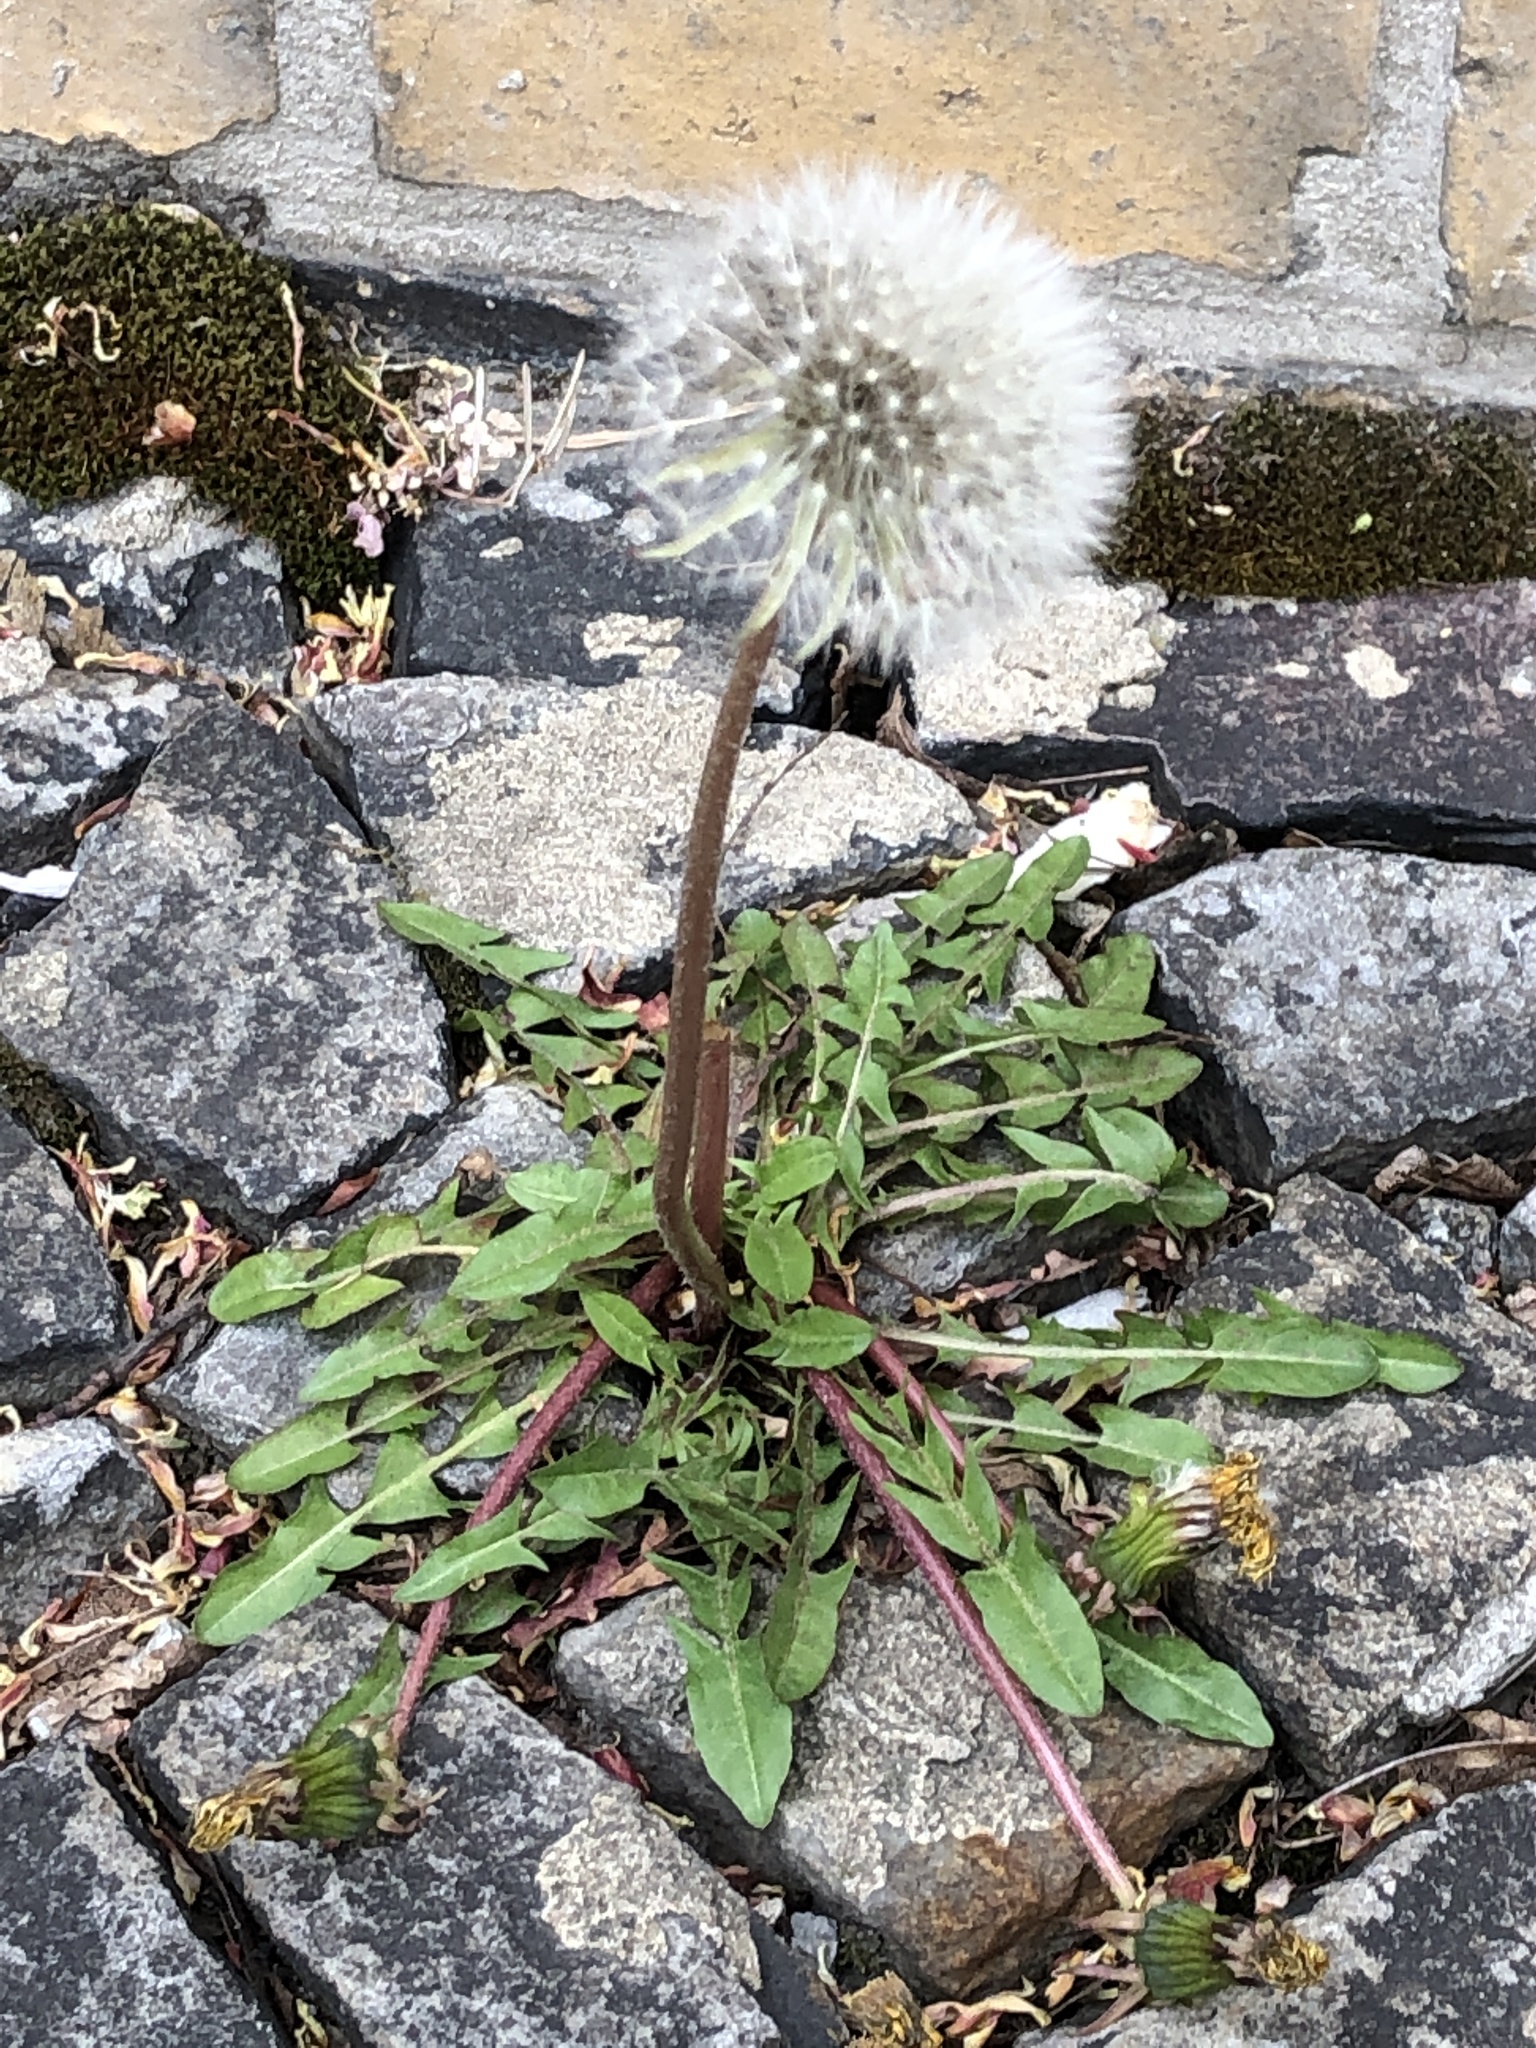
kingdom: Plantae
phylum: Tracheophyta
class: Magnoliopsida
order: Asterales
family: Asteraceae
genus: Taraxacum
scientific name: Taraxacum officinale
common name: Common dandelion
